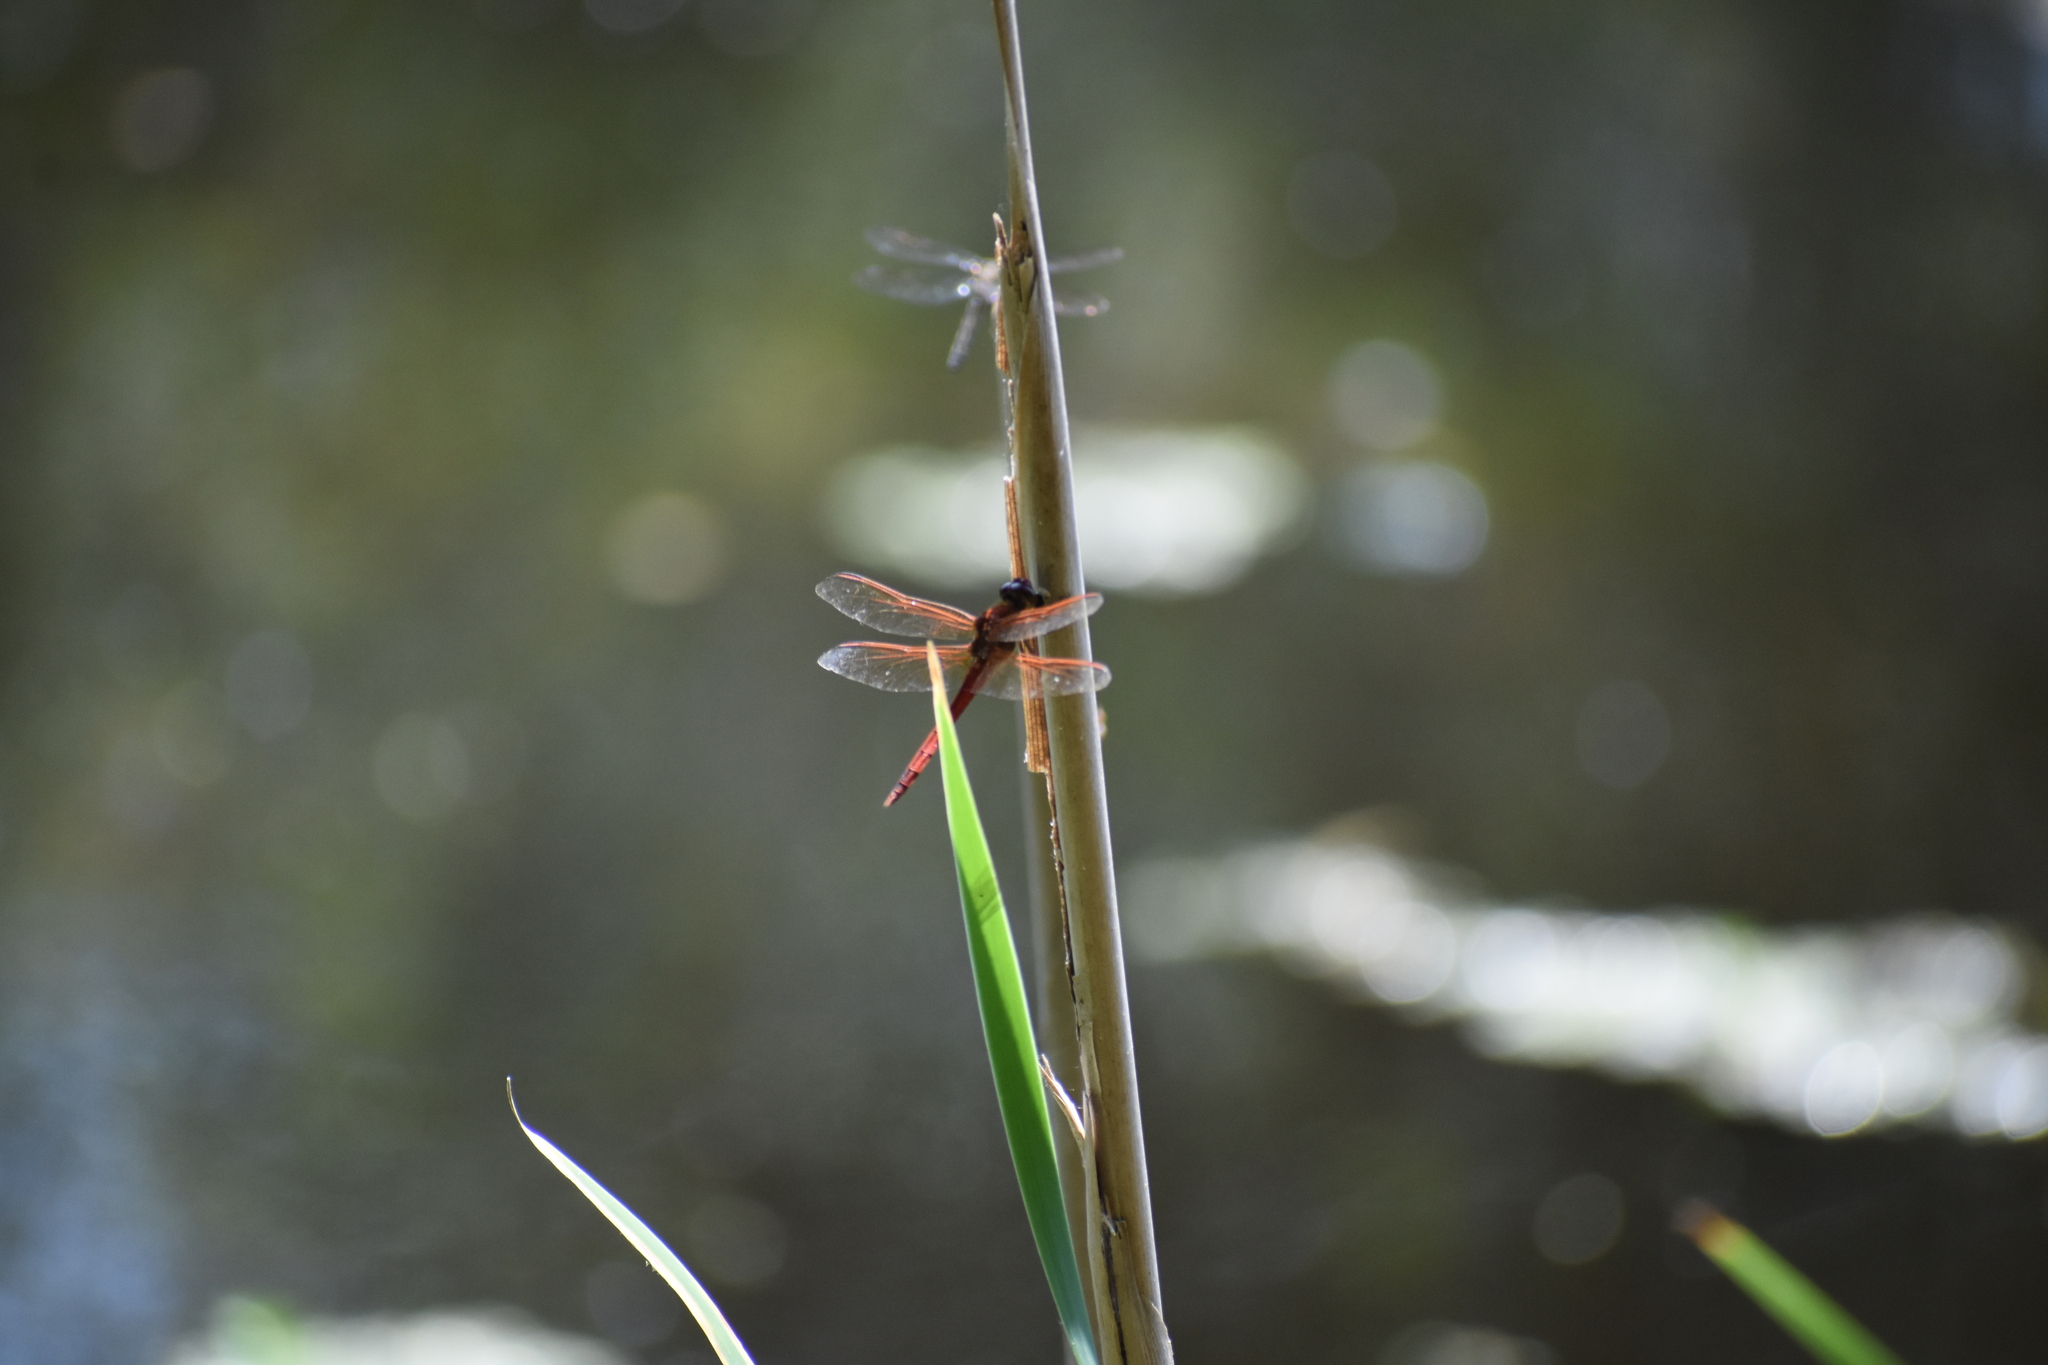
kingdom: Animalia
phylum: Arthropoda
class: Insecta
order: Odonata
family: Libellulidae
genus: Libellula
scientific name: Libellula needhami
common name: Needham's skimmer
